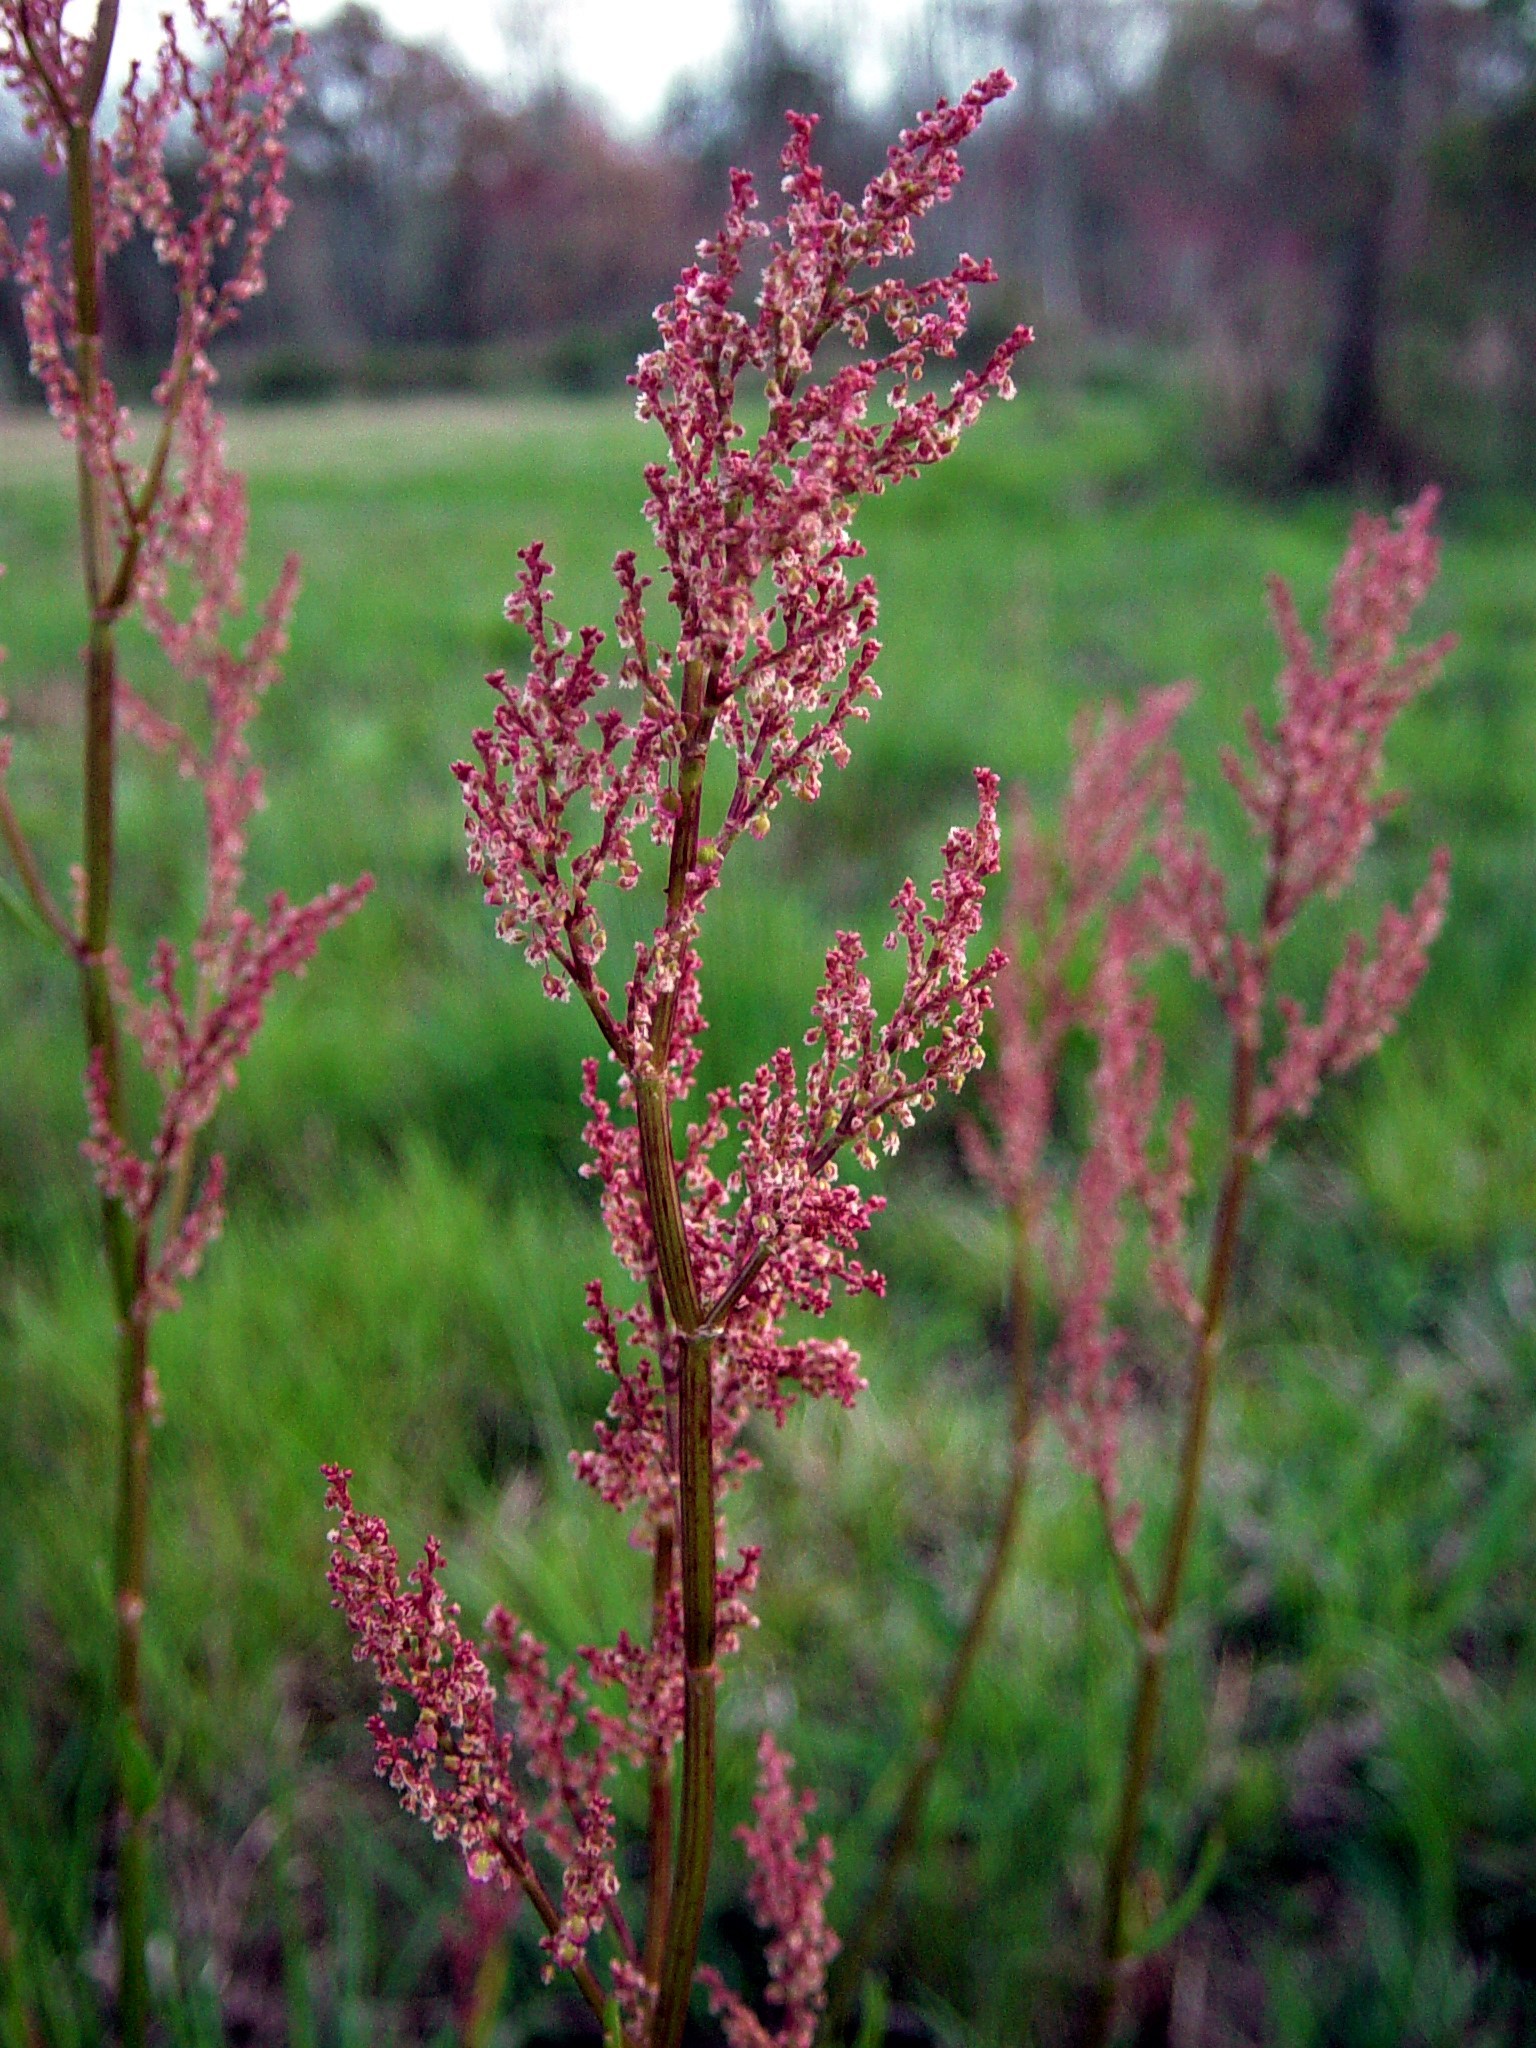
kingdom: Plantae
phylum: Tracheophyta
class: Magnoliopsida
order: Caryophyllales
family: Polygonaceae
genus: Rumex
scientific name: Rumex hastatulus
